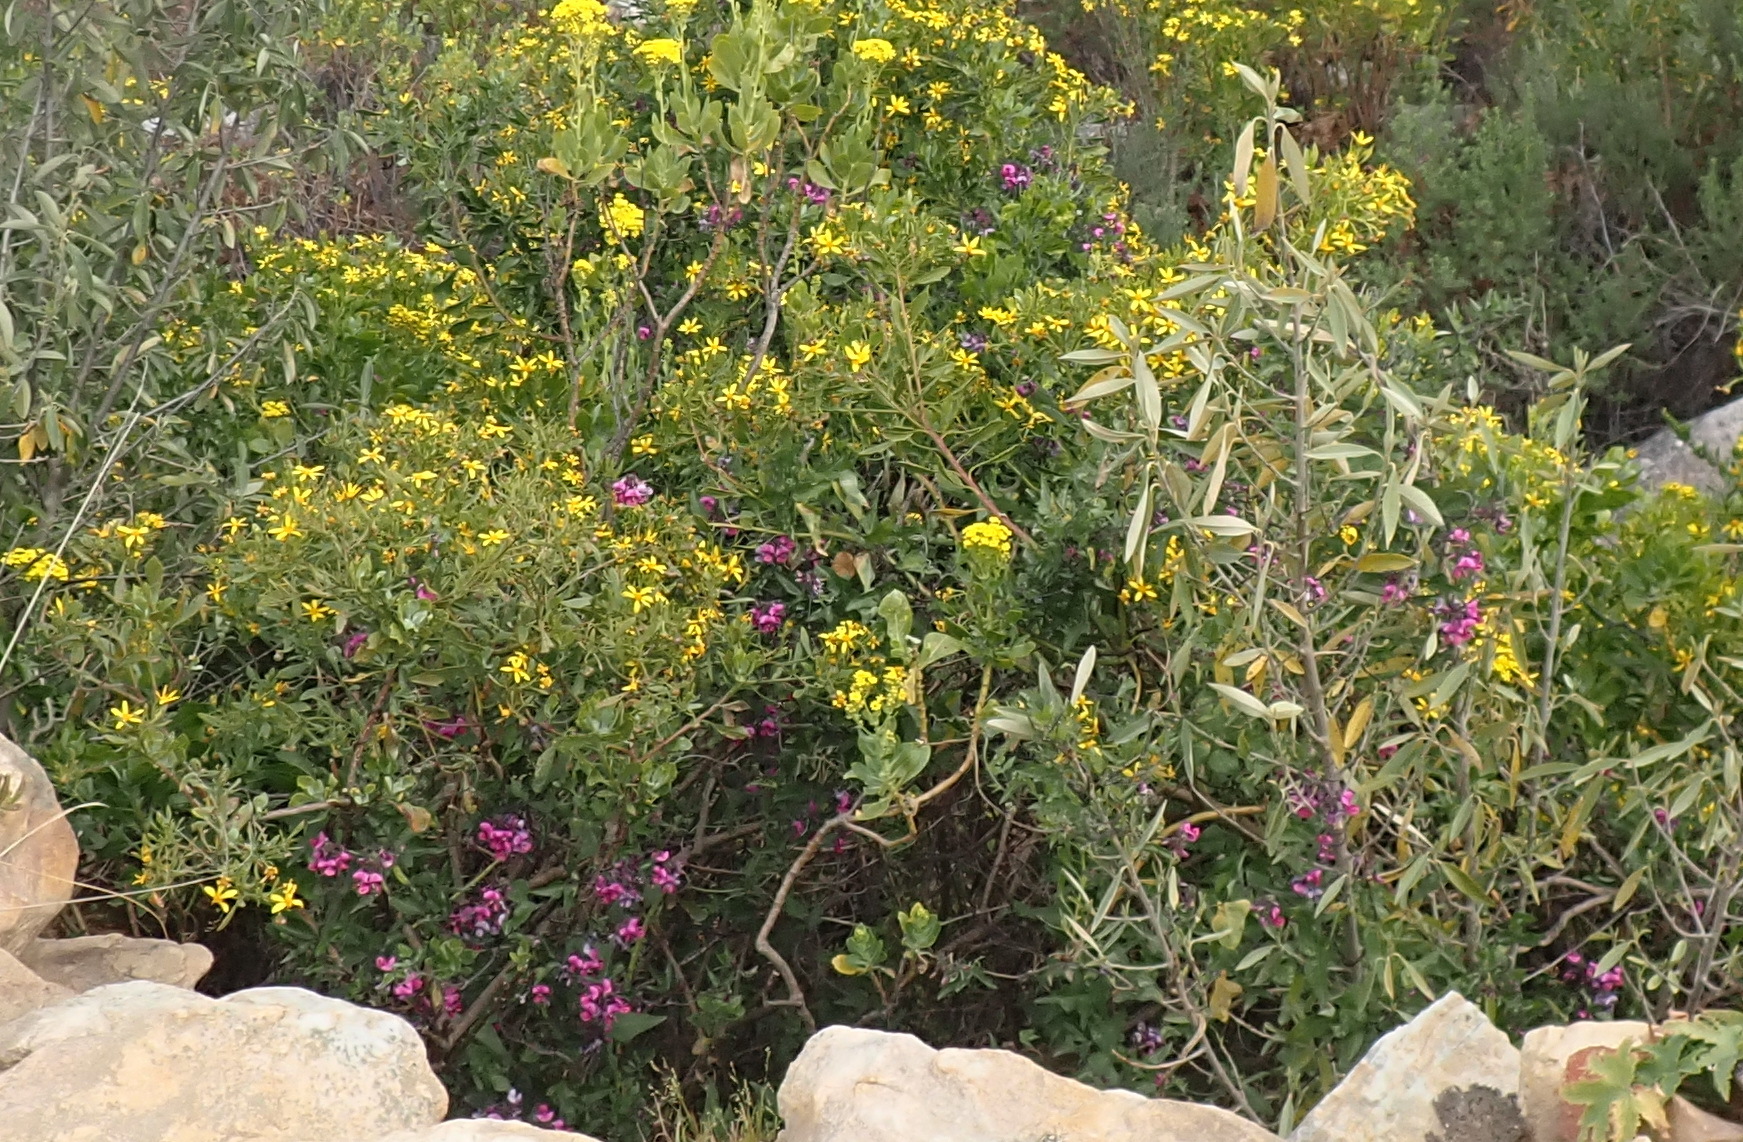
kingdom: Plantae
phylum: Tracheophyta
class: Magnoliopsida
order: Fabales
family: Fabaceae
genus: Dipogon
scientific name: Dipogon lignosus
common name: Okie bean
